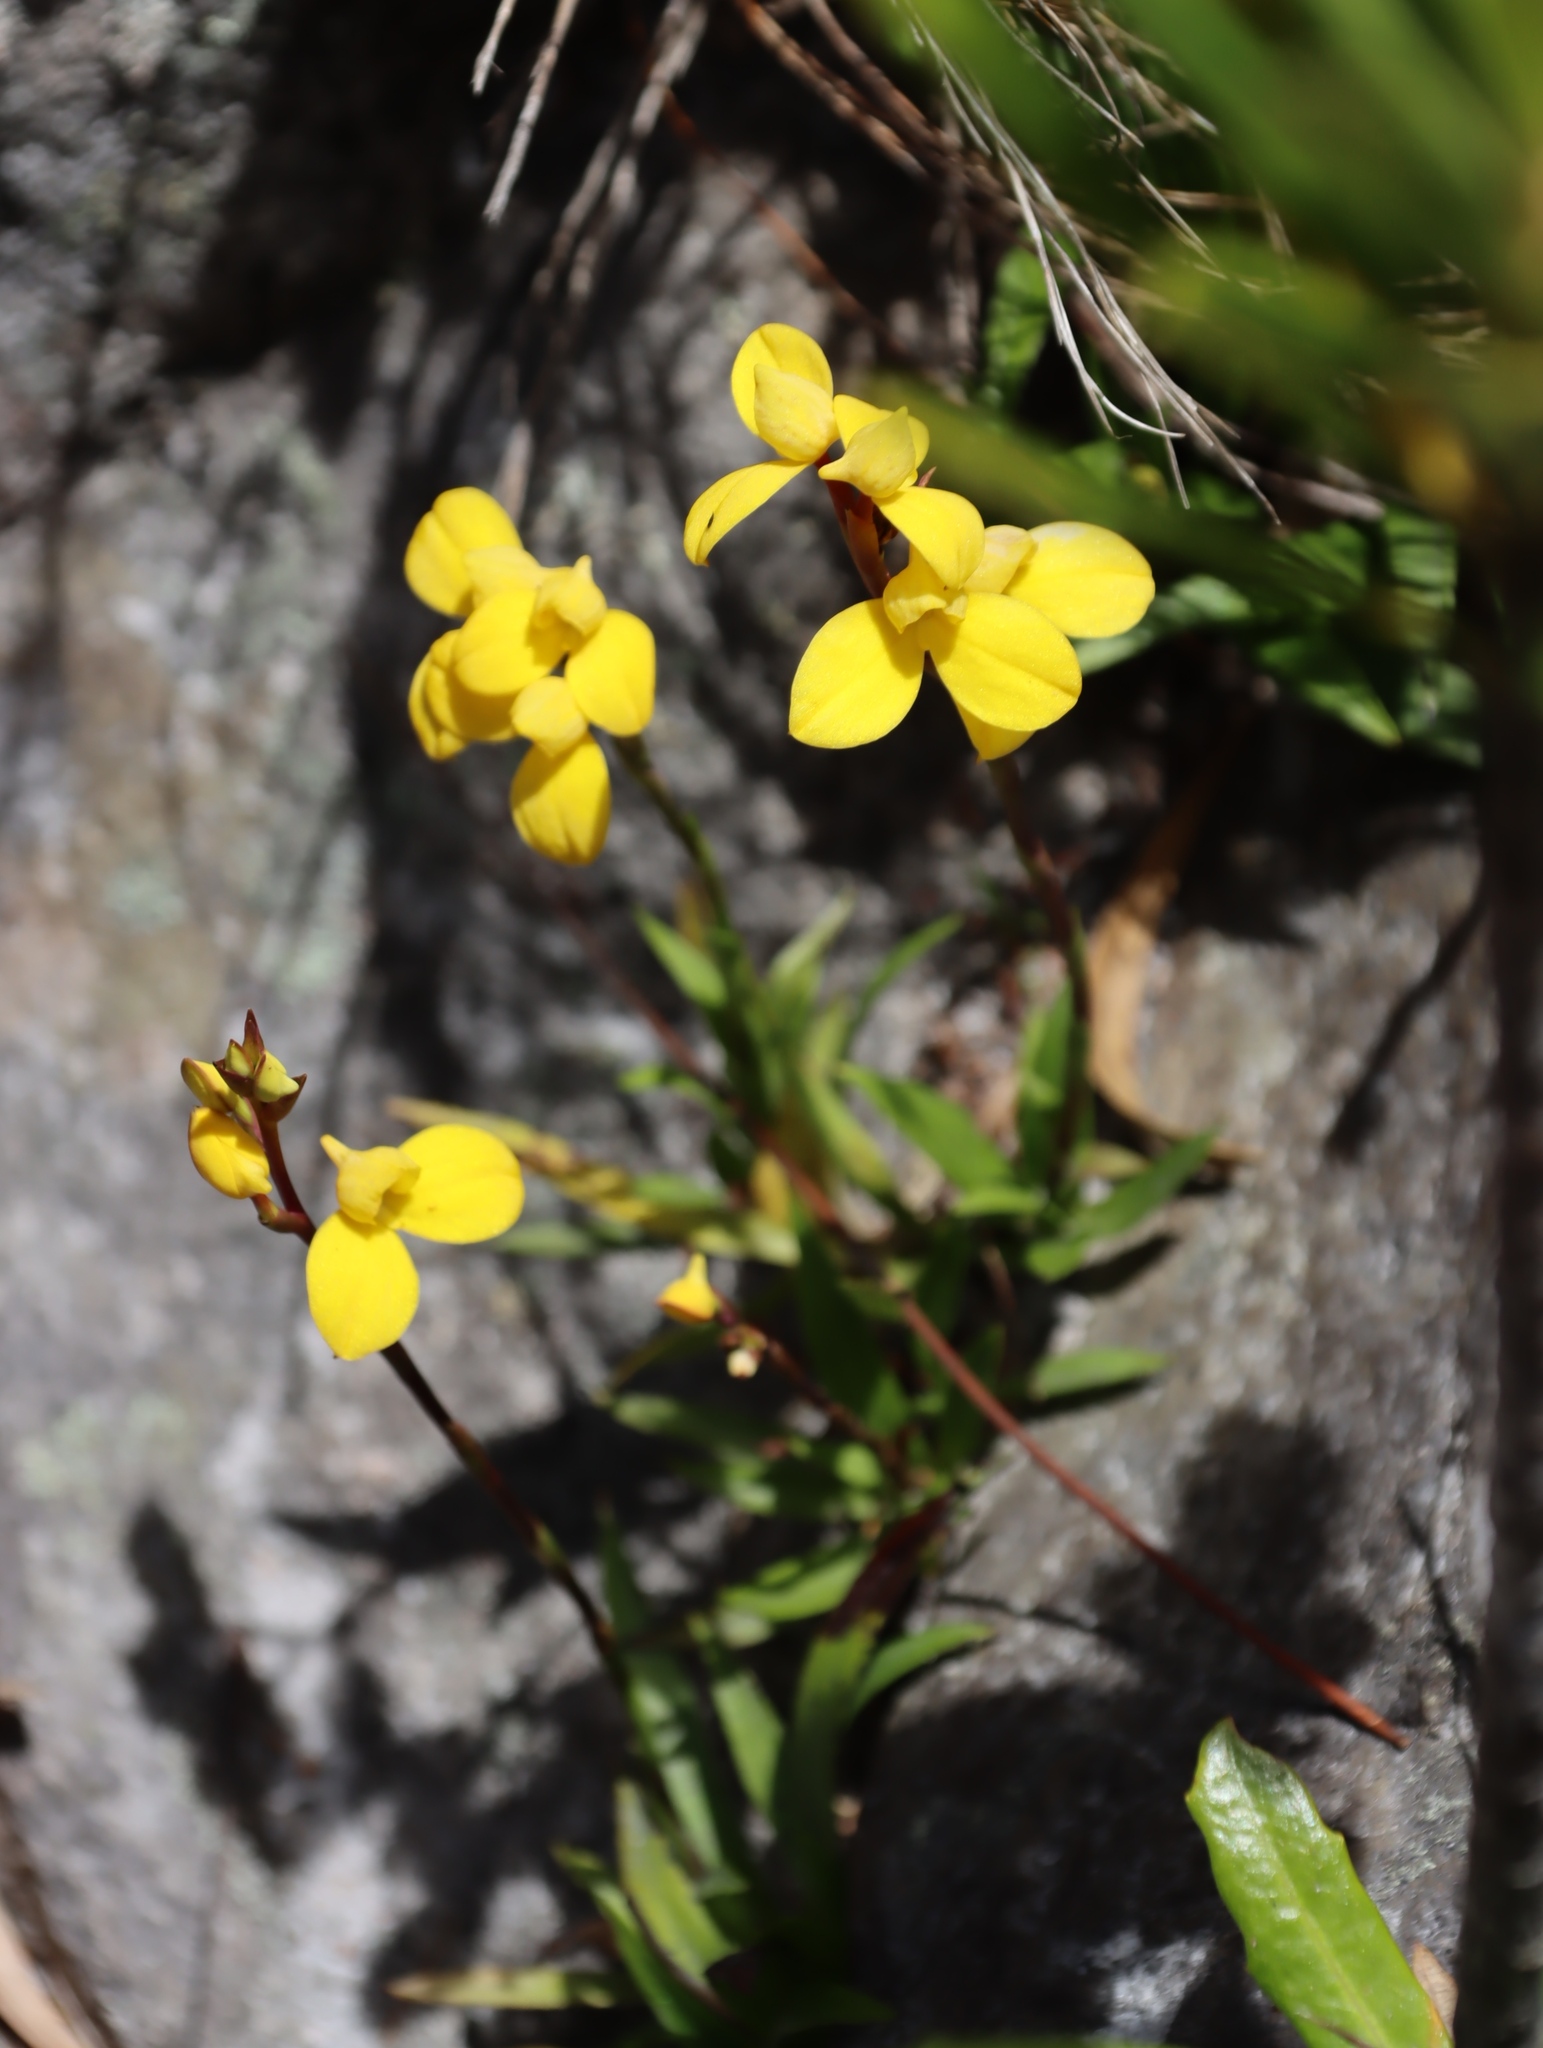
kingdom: Plantae
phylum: Tracheophyta
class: Liliopsida
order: Asparagales
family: Orchidaceae
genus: Disa
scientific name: Disa aurata
